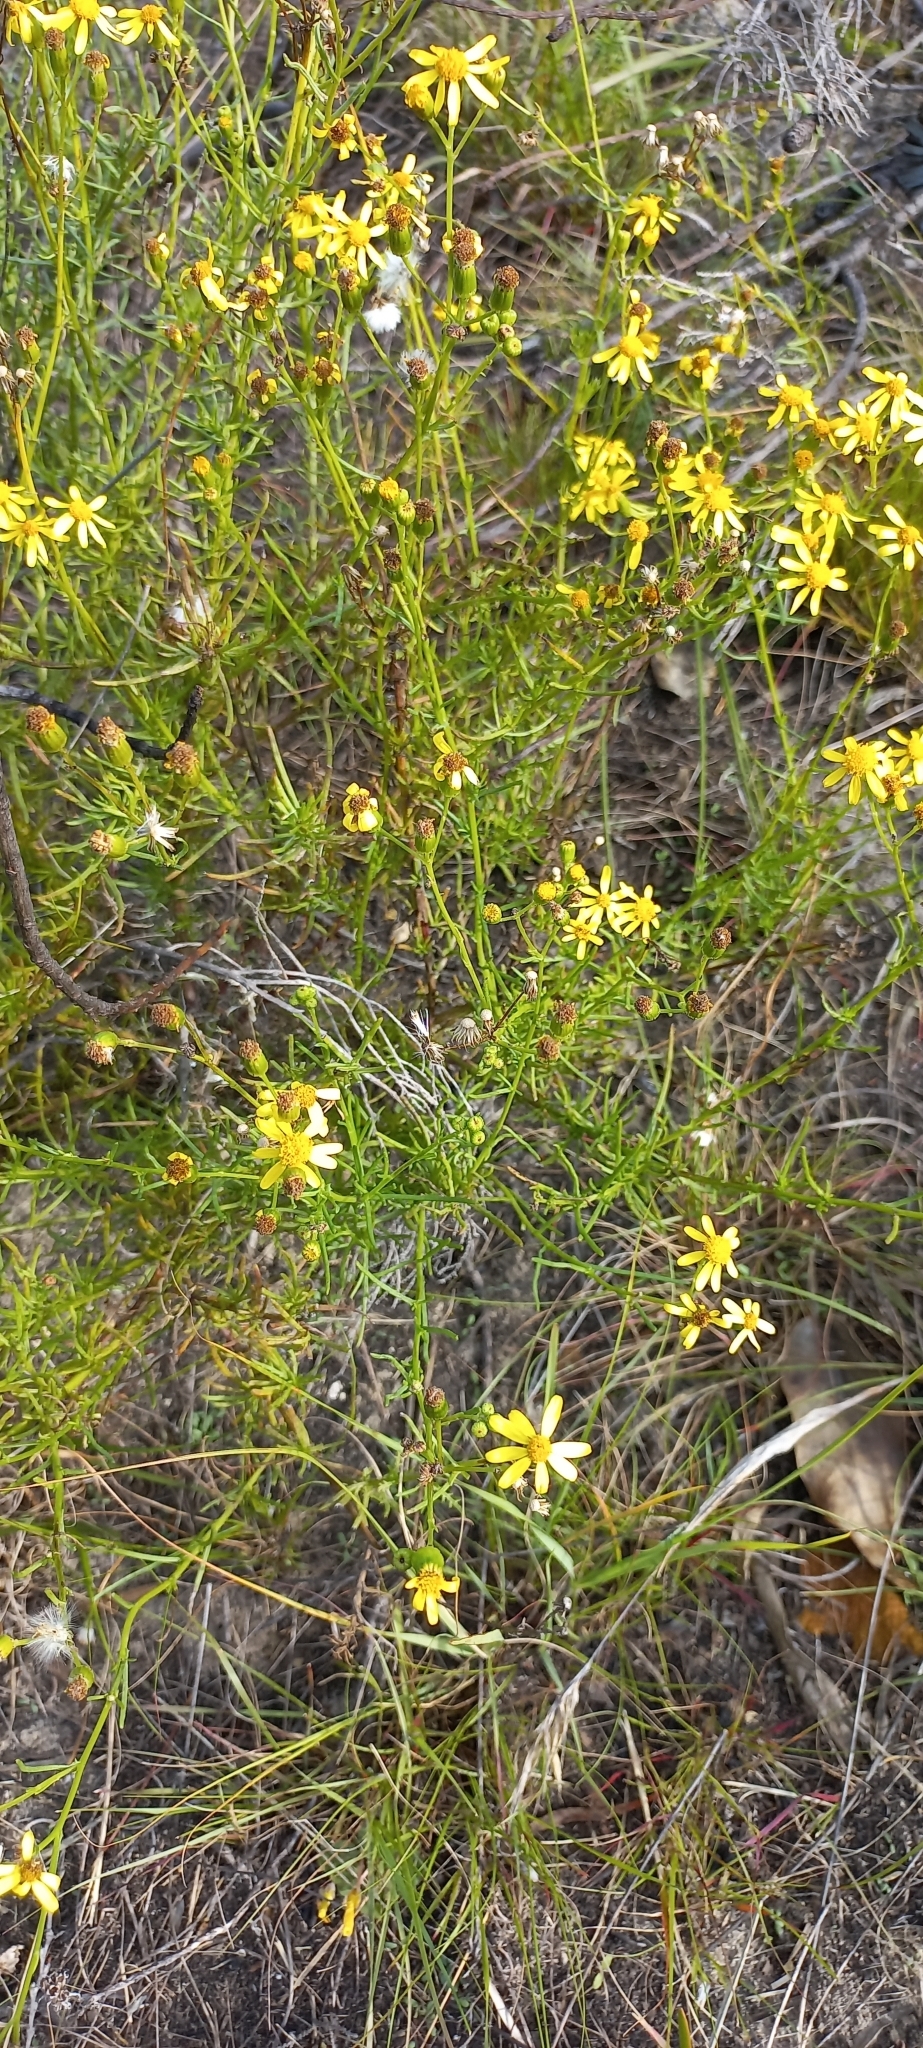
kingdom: Plantae
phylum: Tracheophyta
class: Magnoliopsida
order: Asterales
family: Asteraceae
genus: Senecio
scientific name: Senecio burchellii
